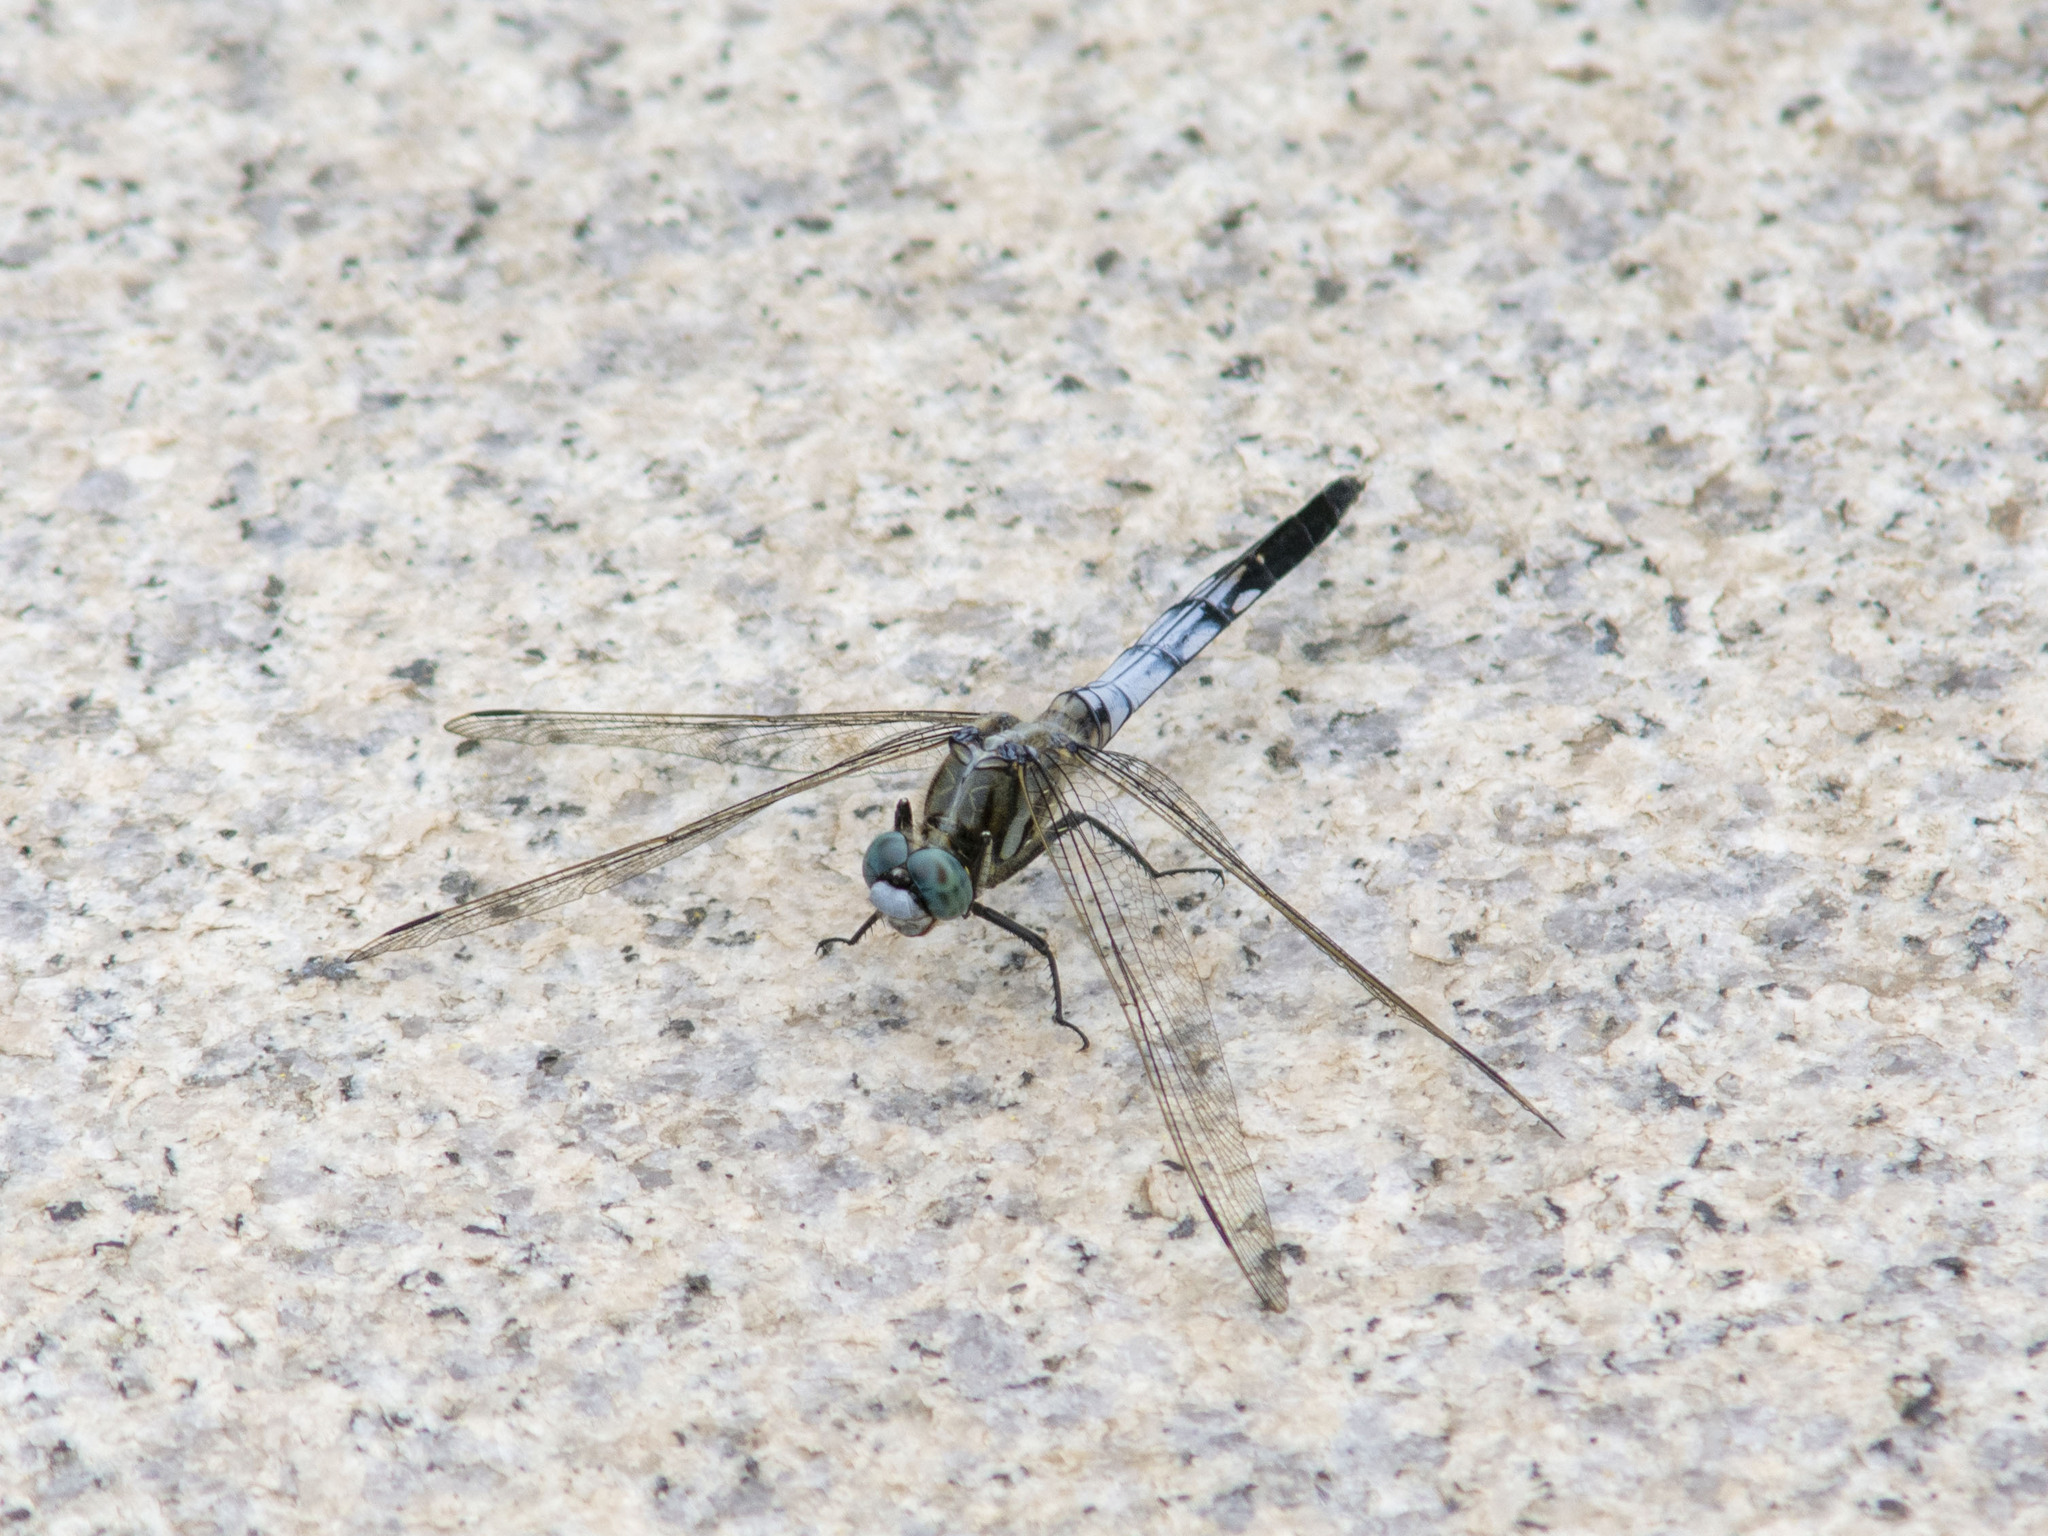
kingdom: Animalia
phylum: Arthropoda
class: Insecta
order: Odonata
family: Libellulidae
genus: Orthetrum
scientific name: Orthetrum albistylum
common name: White-tailed skimmer
